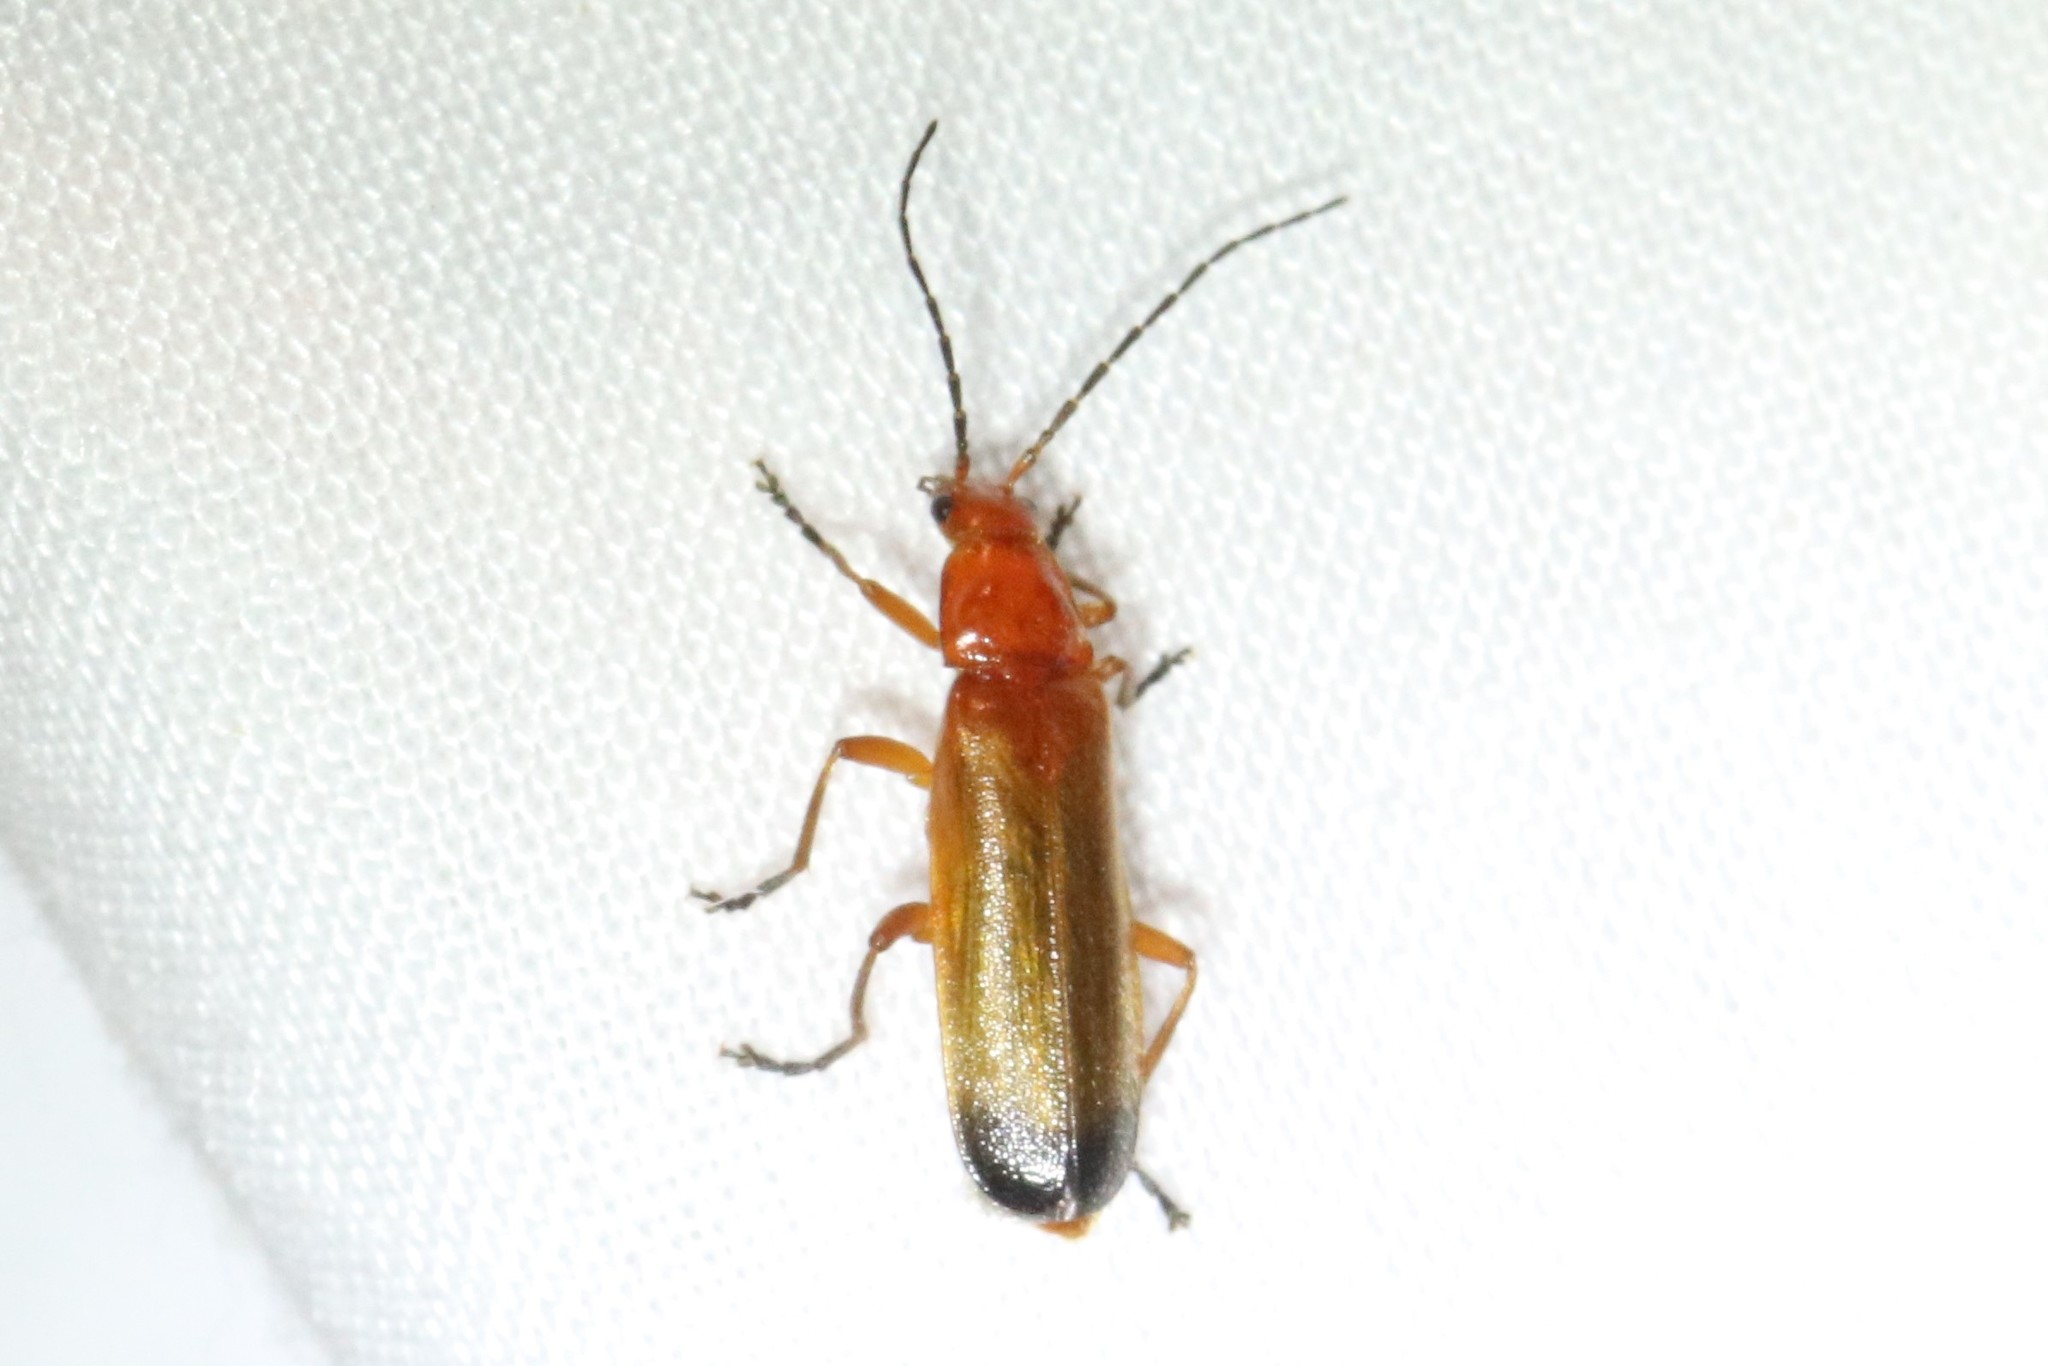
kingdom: Animalia
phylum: Arthropoda
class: Insecta
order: Coleoptera
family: Cantharidae
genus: Rhagonycha
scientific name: Rhagonycha fulva
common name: Common red soldier beetle
